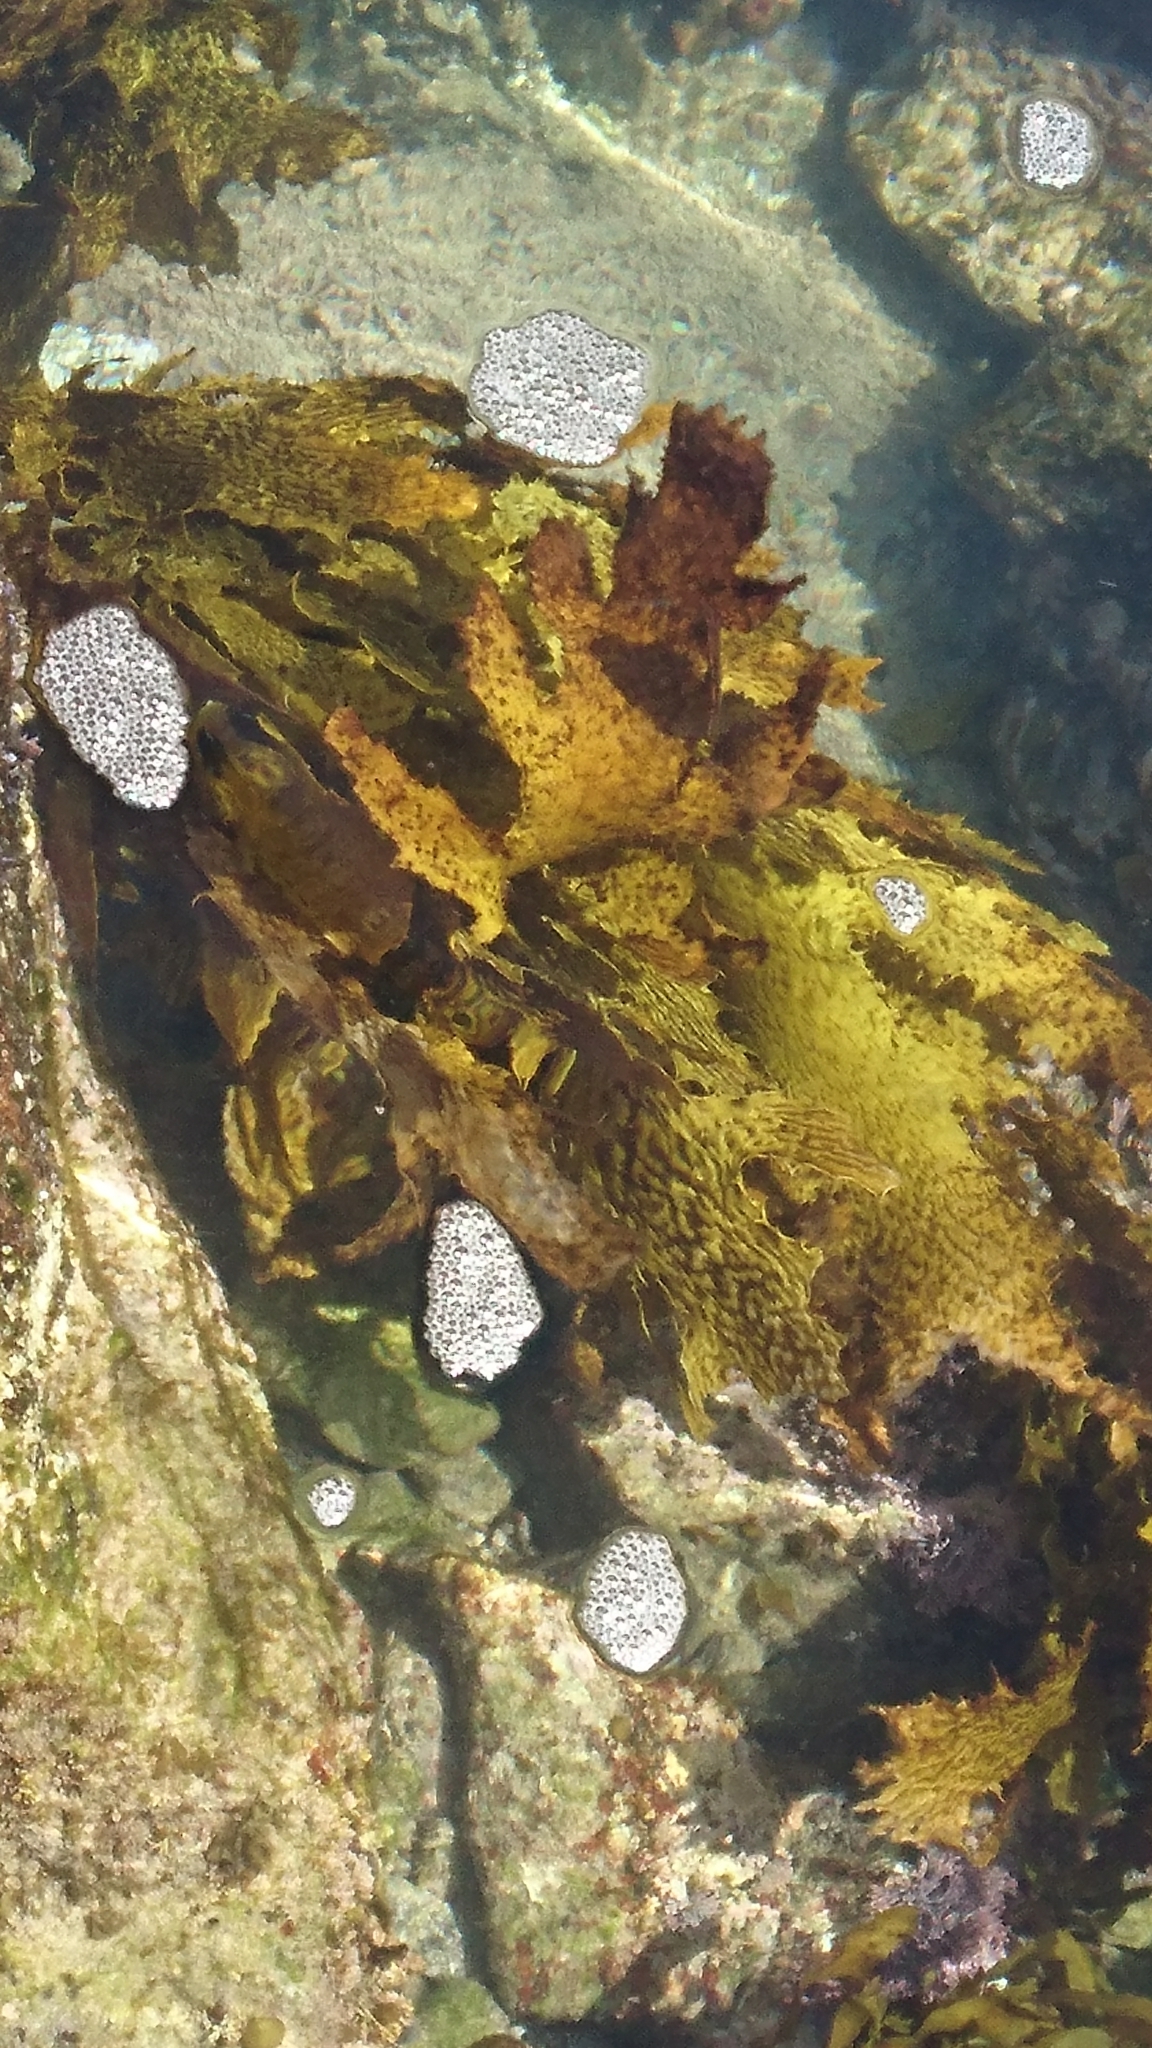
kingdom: Chromista
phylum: Ochrophyta
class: Phaeophyceae
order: Laminariales
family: Lessoniaceae
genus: Ecklonia
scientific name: Ecklonia radiata
